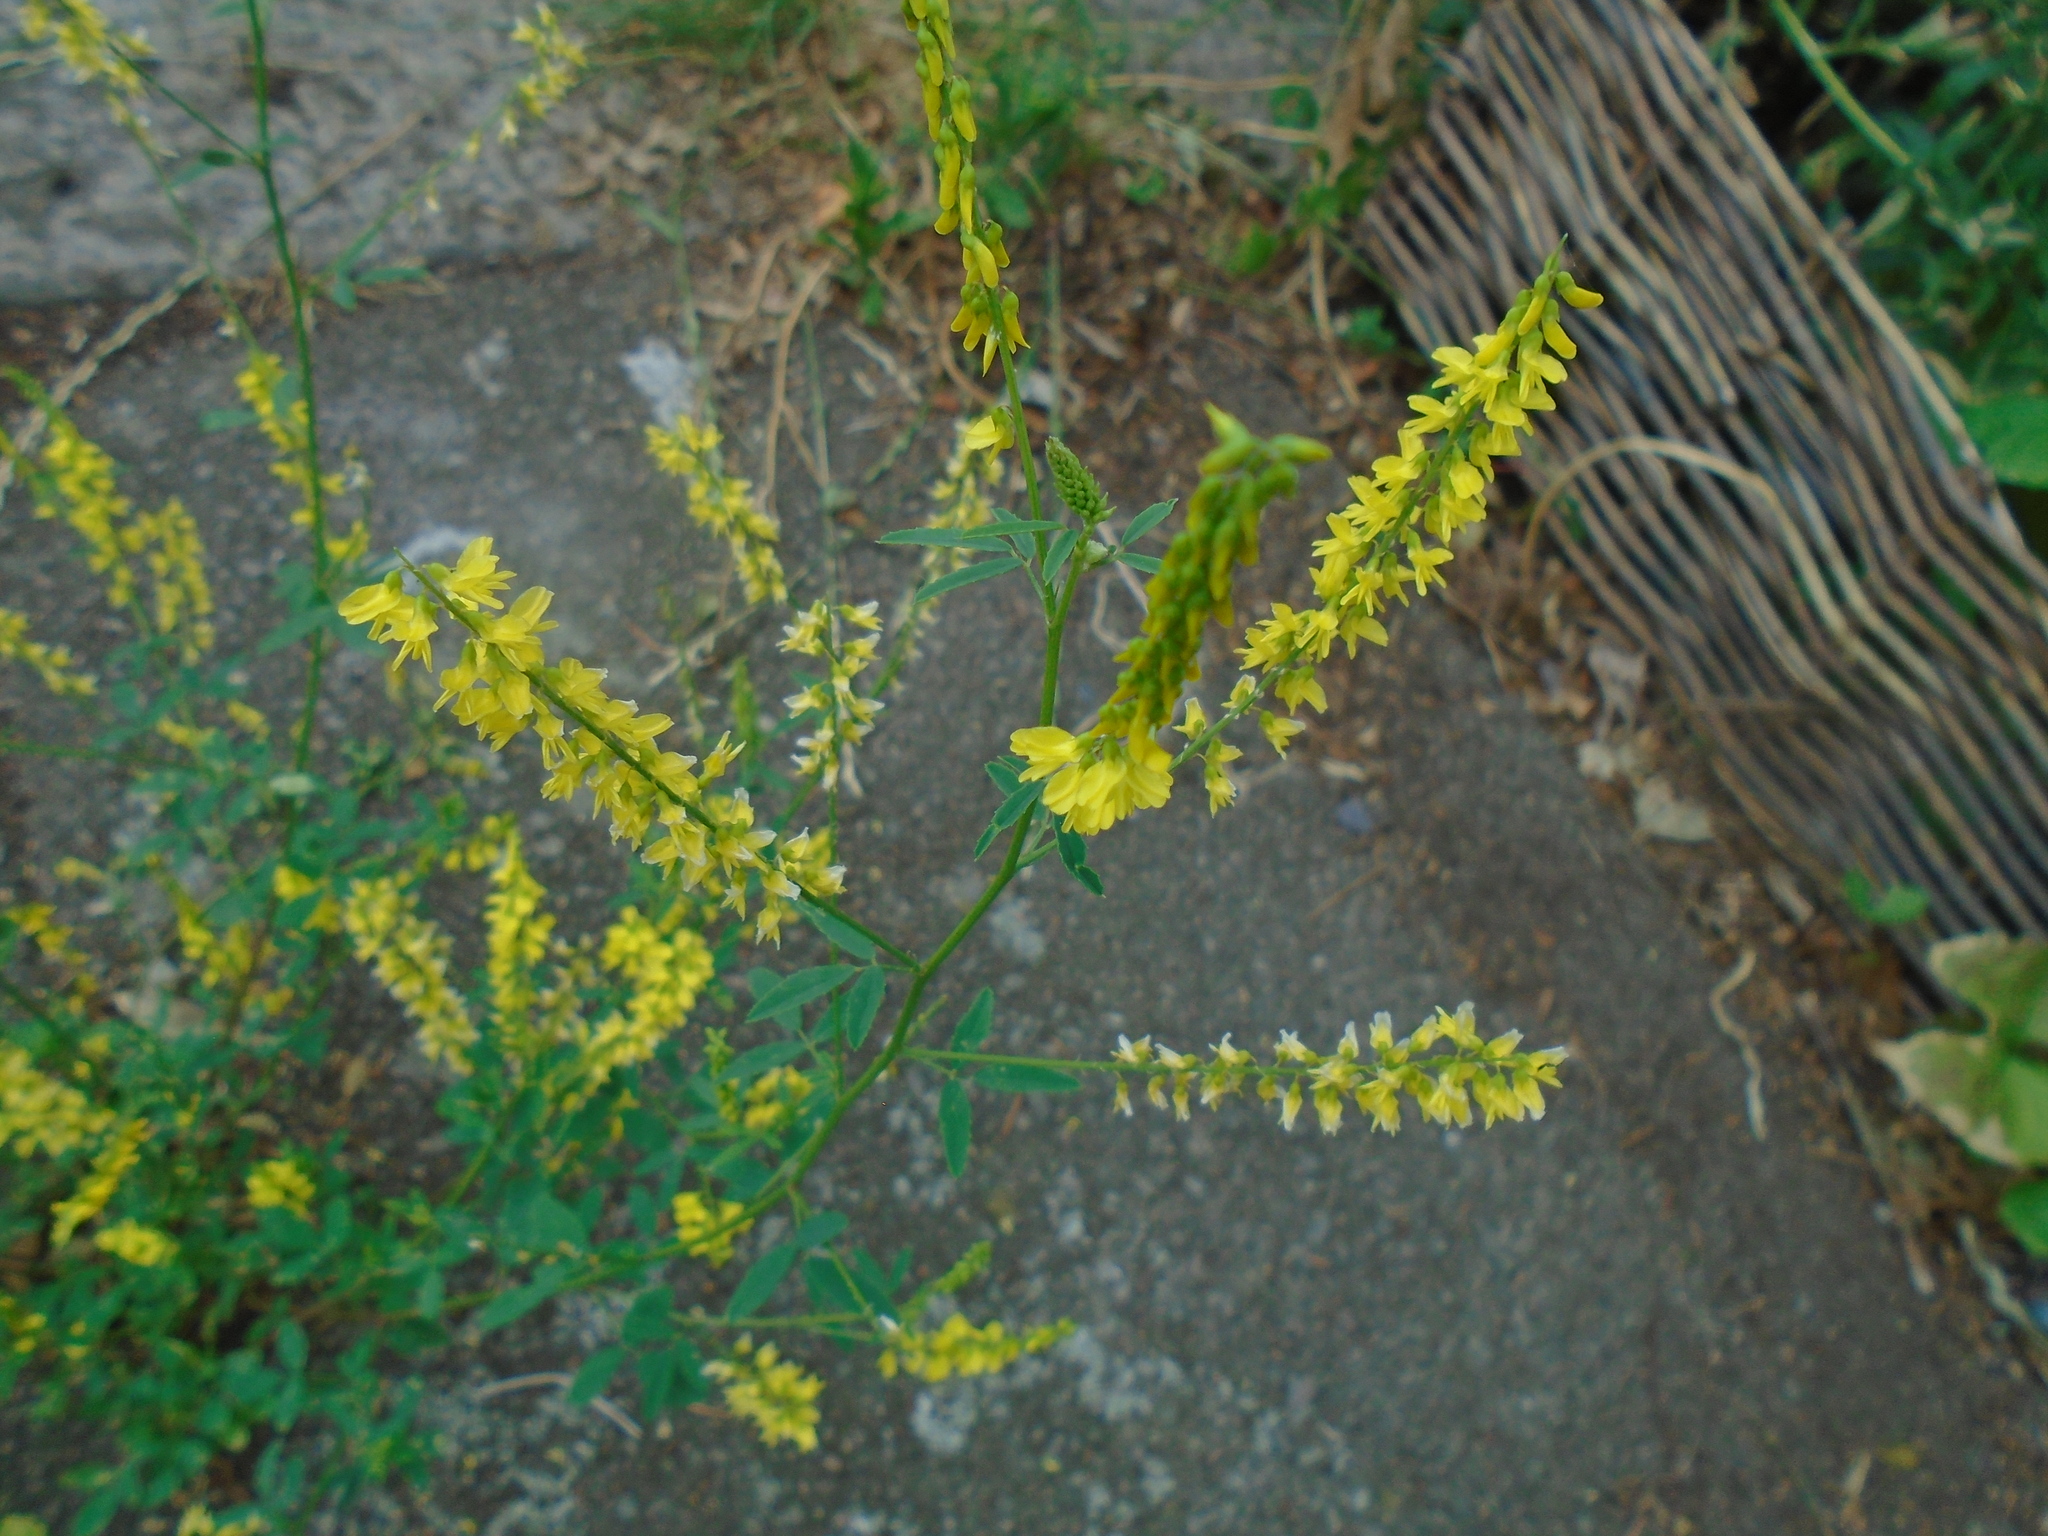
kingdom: Plantae
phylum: Tracheophyta
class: Magnoliopsida
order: Fabales
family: Fabaceae
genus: Melilotus
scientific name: Melilotus officinalis
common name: Sweetclover
